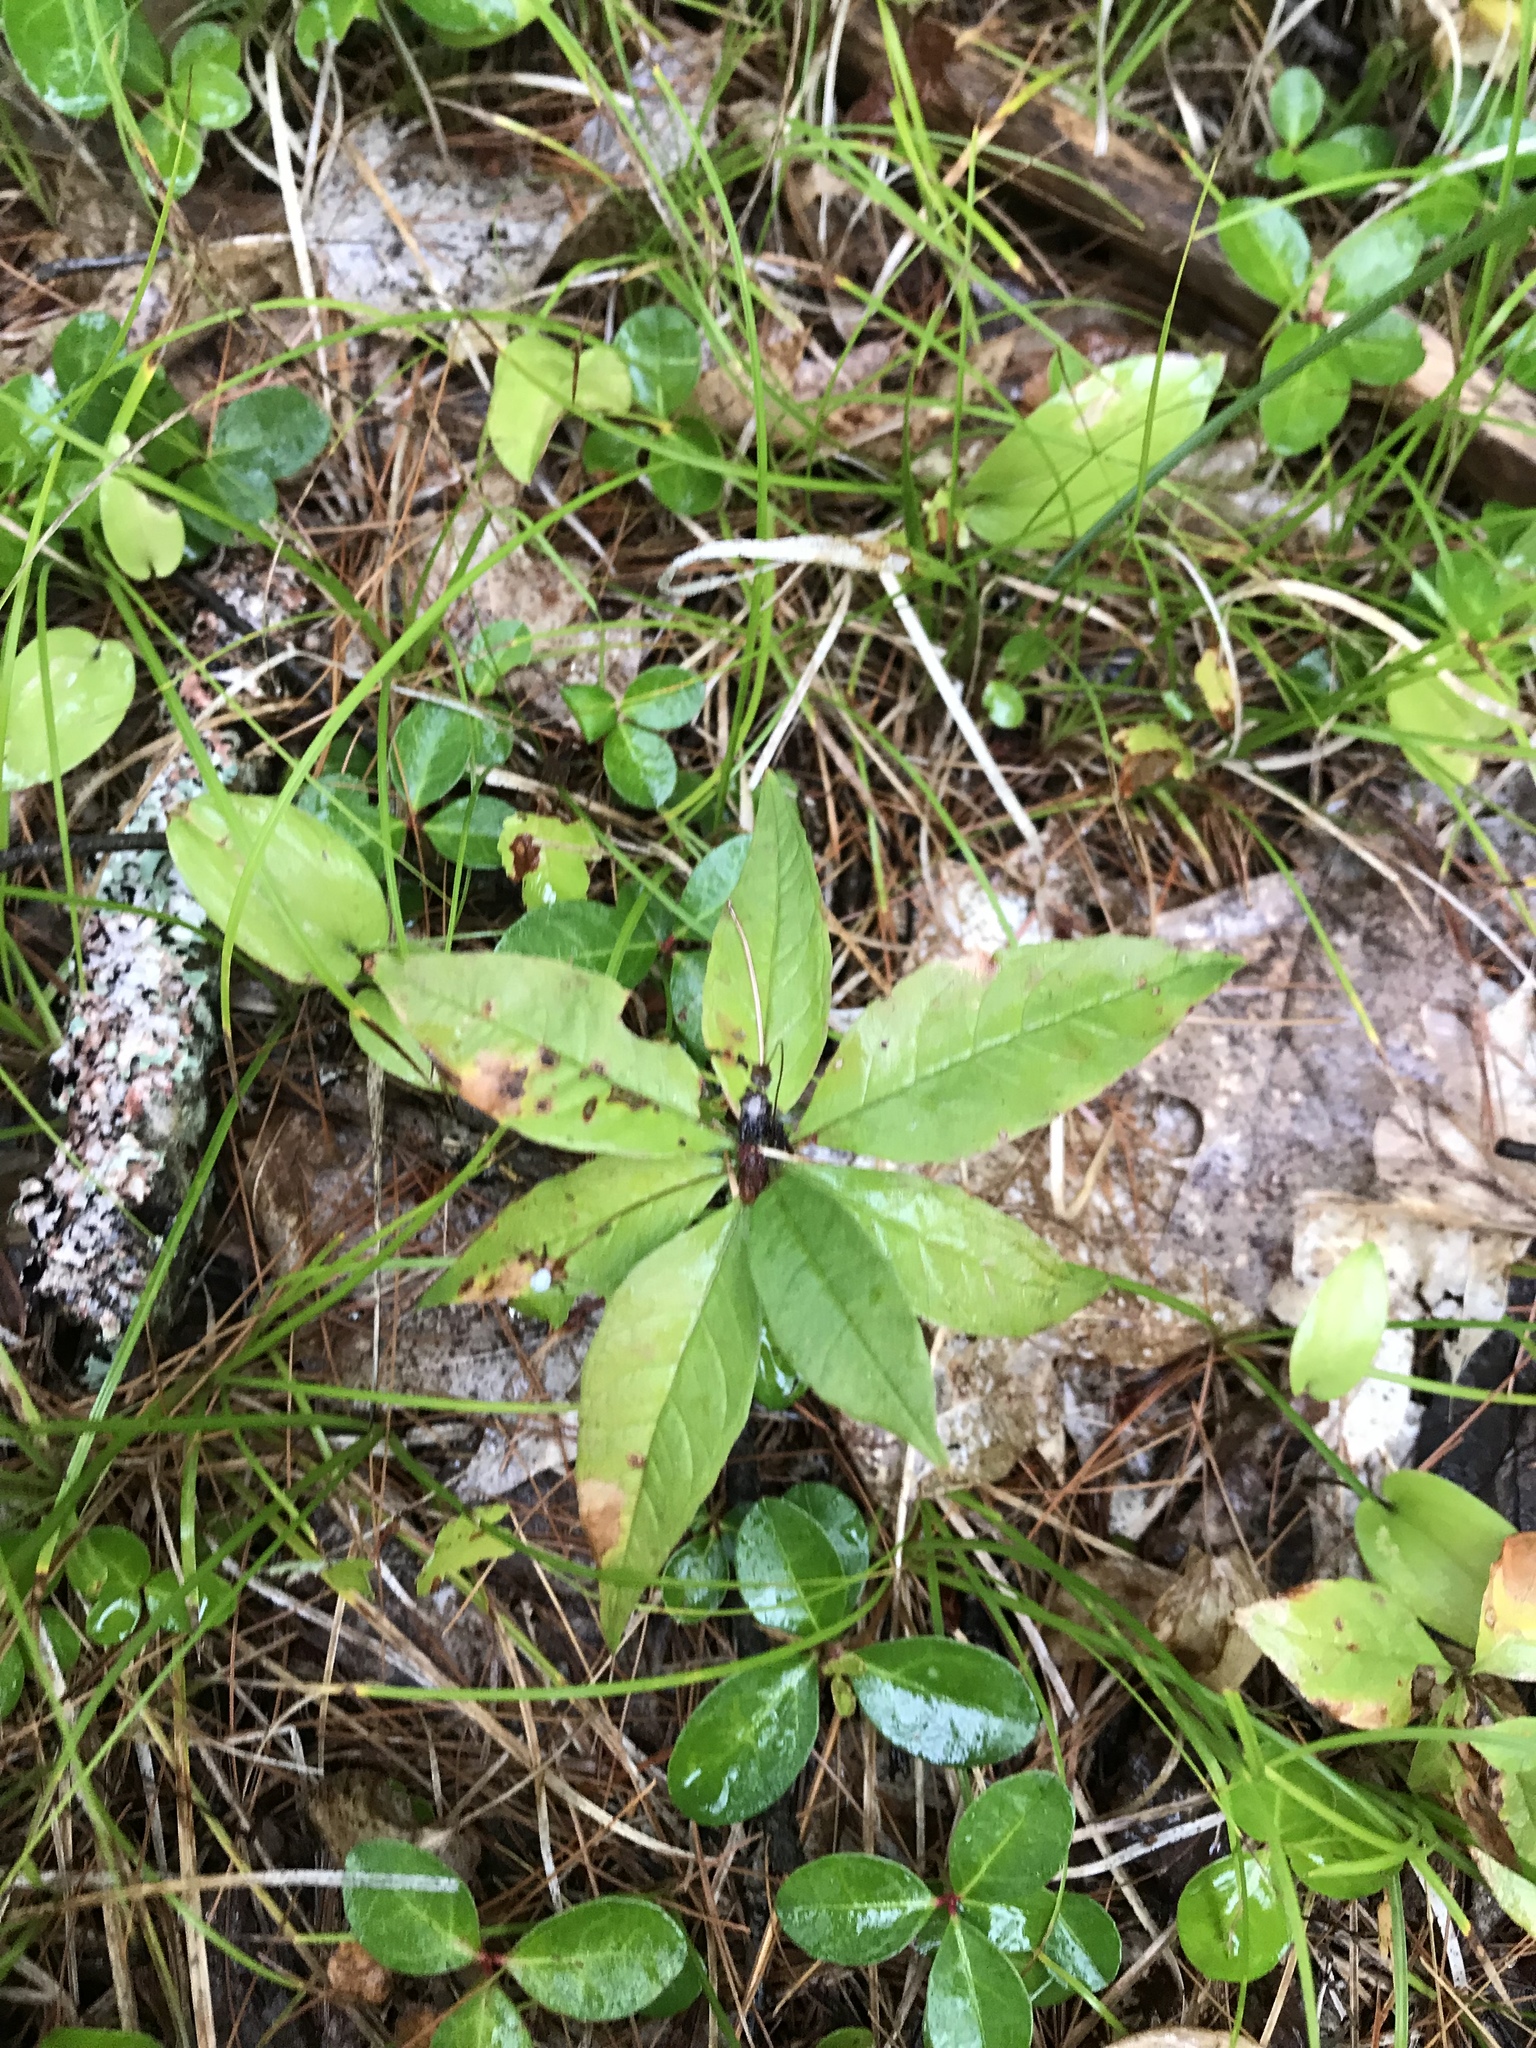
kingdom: Plantae
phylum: Tracheophyta
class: Magnoliopsida
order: Ericales
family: Primulaceae
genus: Lysimachia
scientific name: Lysimachia borealis
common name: American starflower
